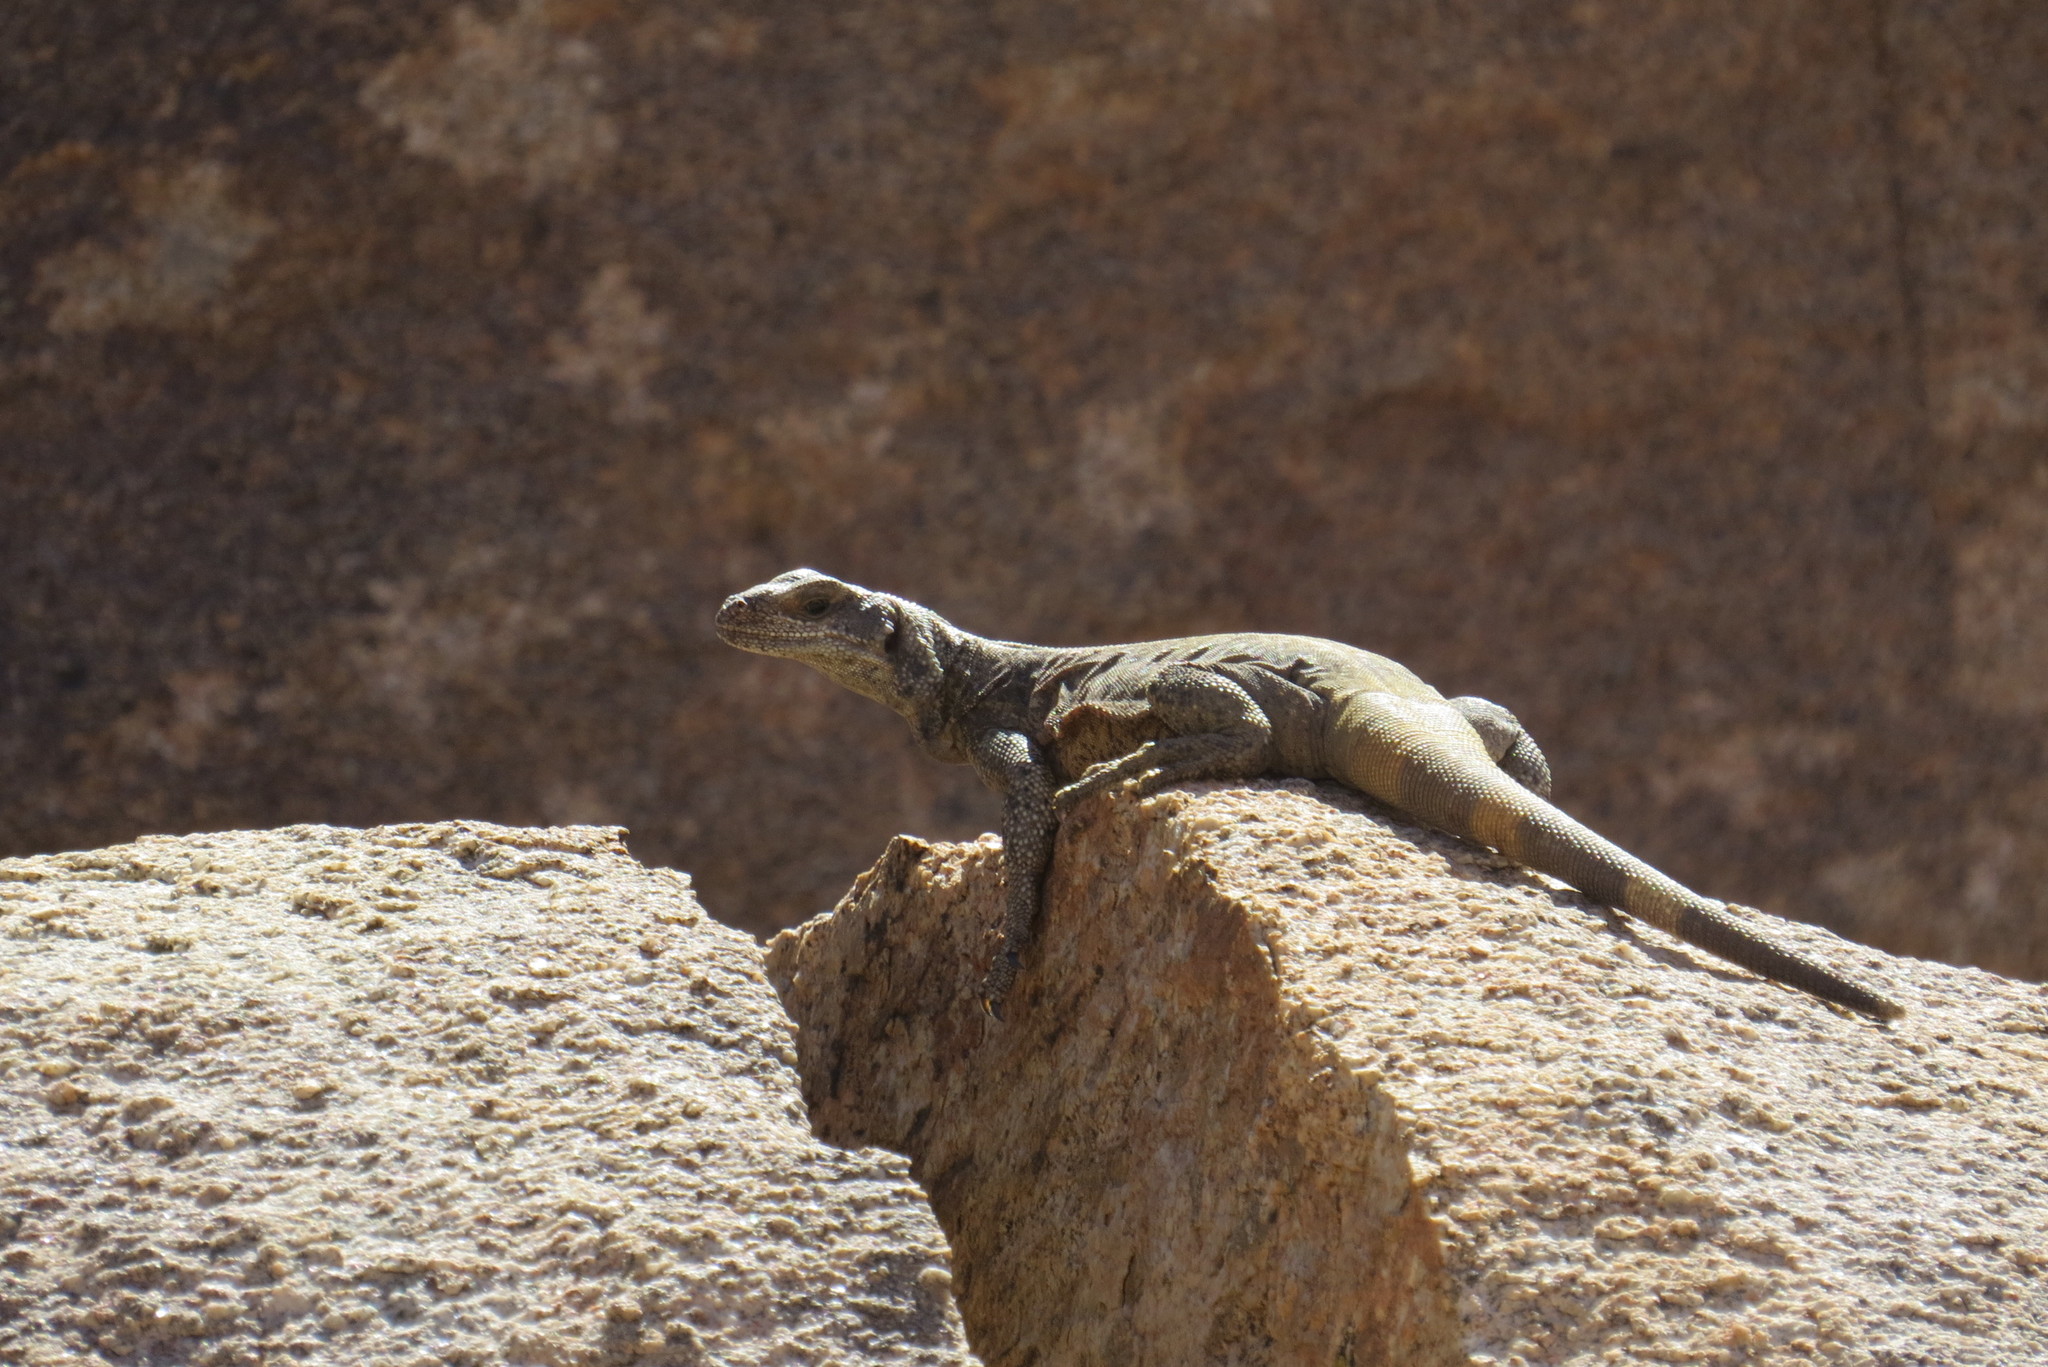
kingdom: Animalia
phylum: Chordata
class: Squamata
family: Iguanidae
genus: Sauromalus
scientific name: Sauromalus ater
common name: Northern chuckwalla
